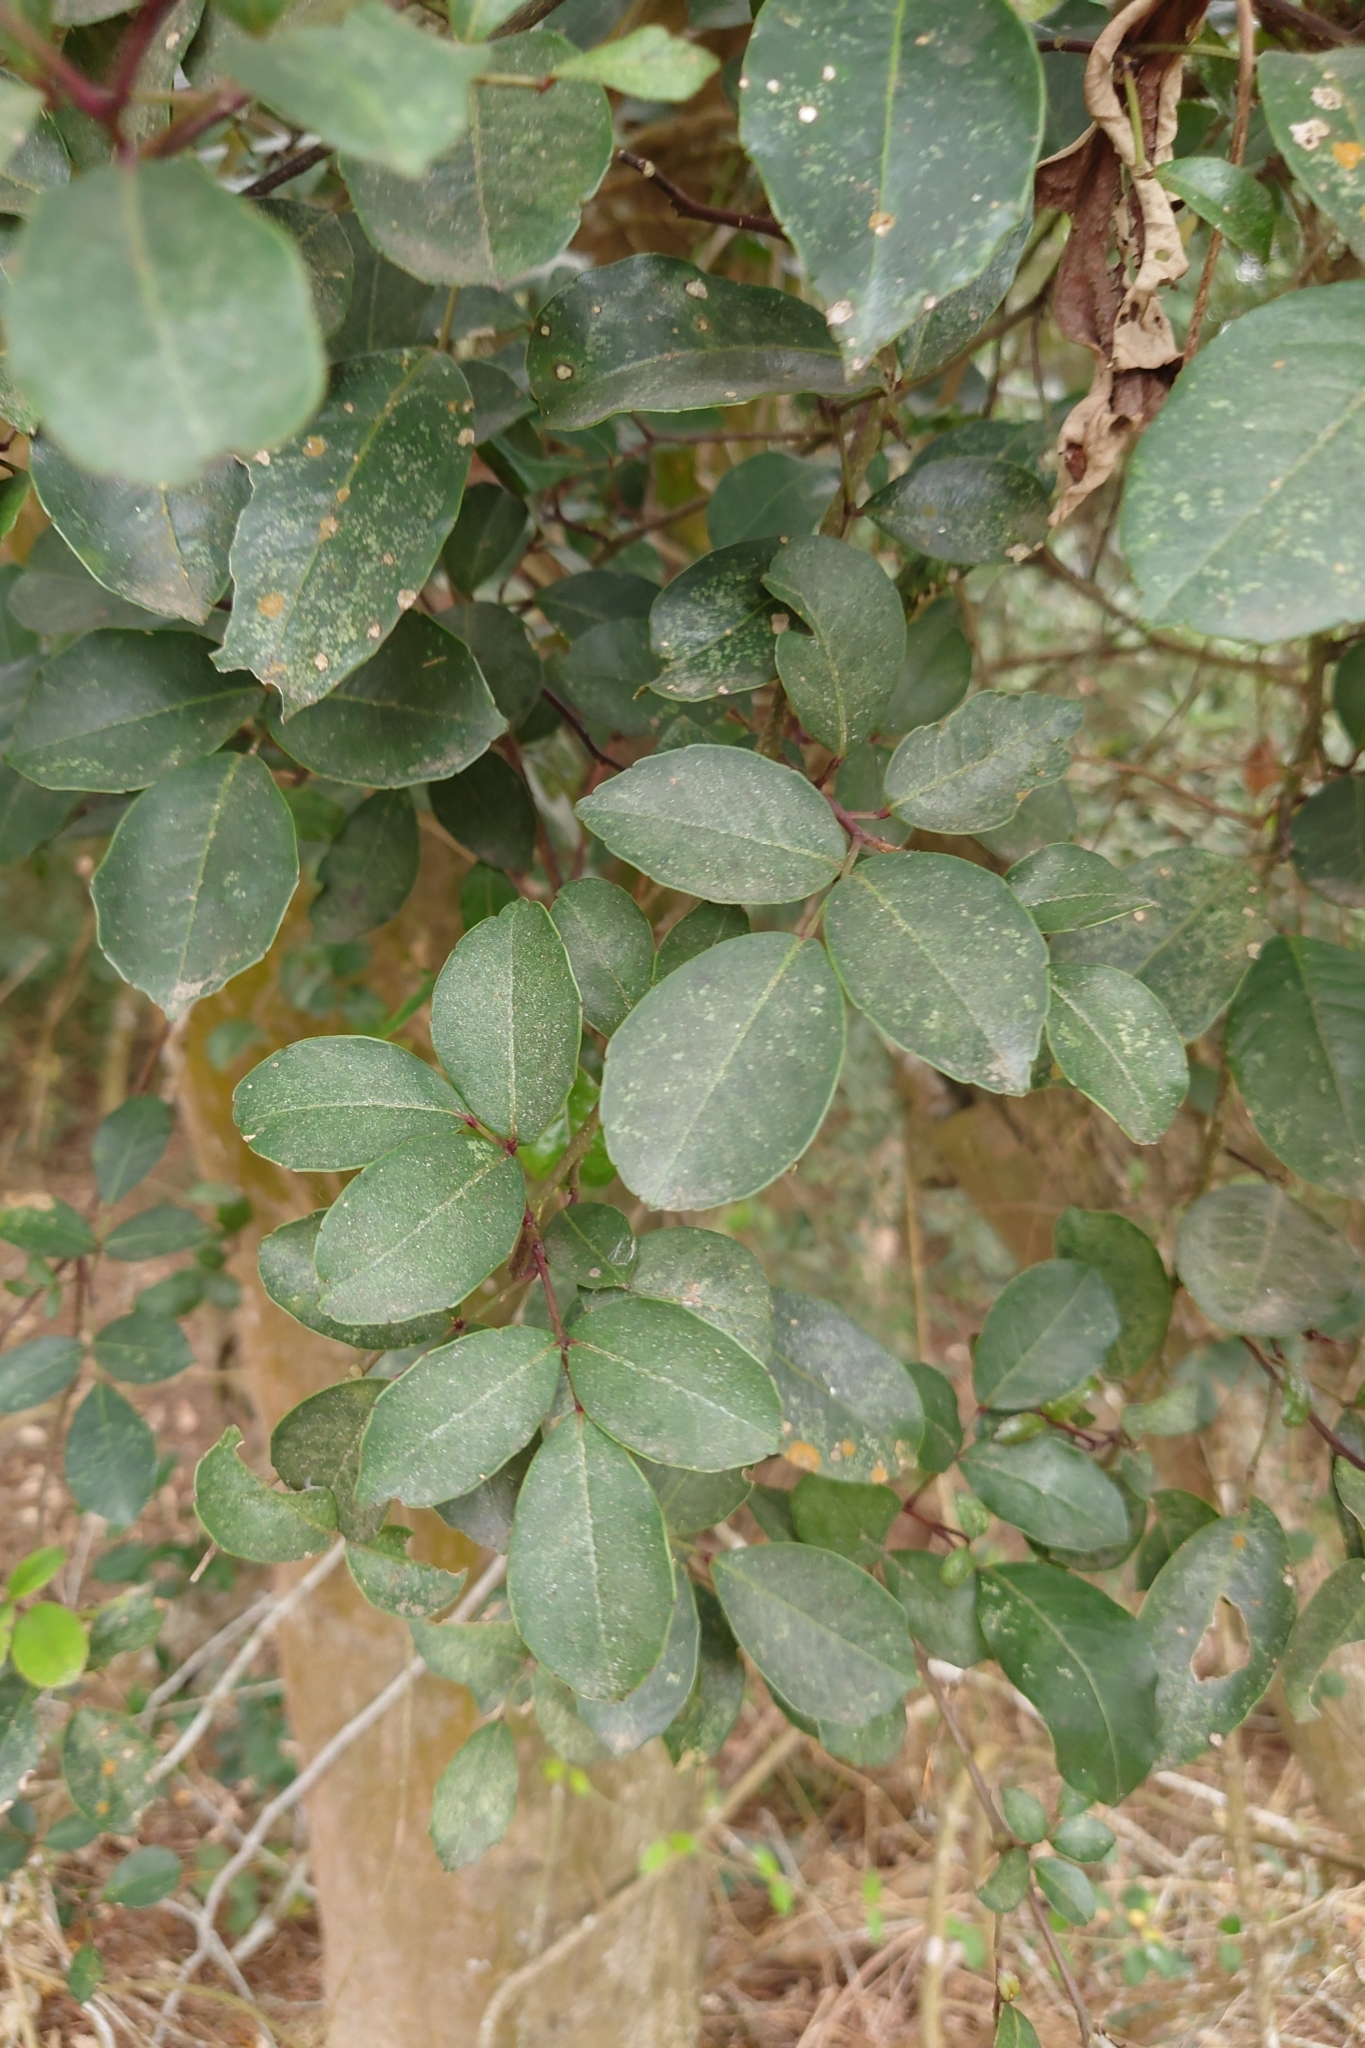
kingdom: Plantae
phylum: Tracheophyta
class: Magnoliopsida
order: Sapindales
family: Rutaceae
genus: Zanthoxylum
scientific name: Zanthoxylum nitidum
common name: Shiny-leaf prickly-ash
